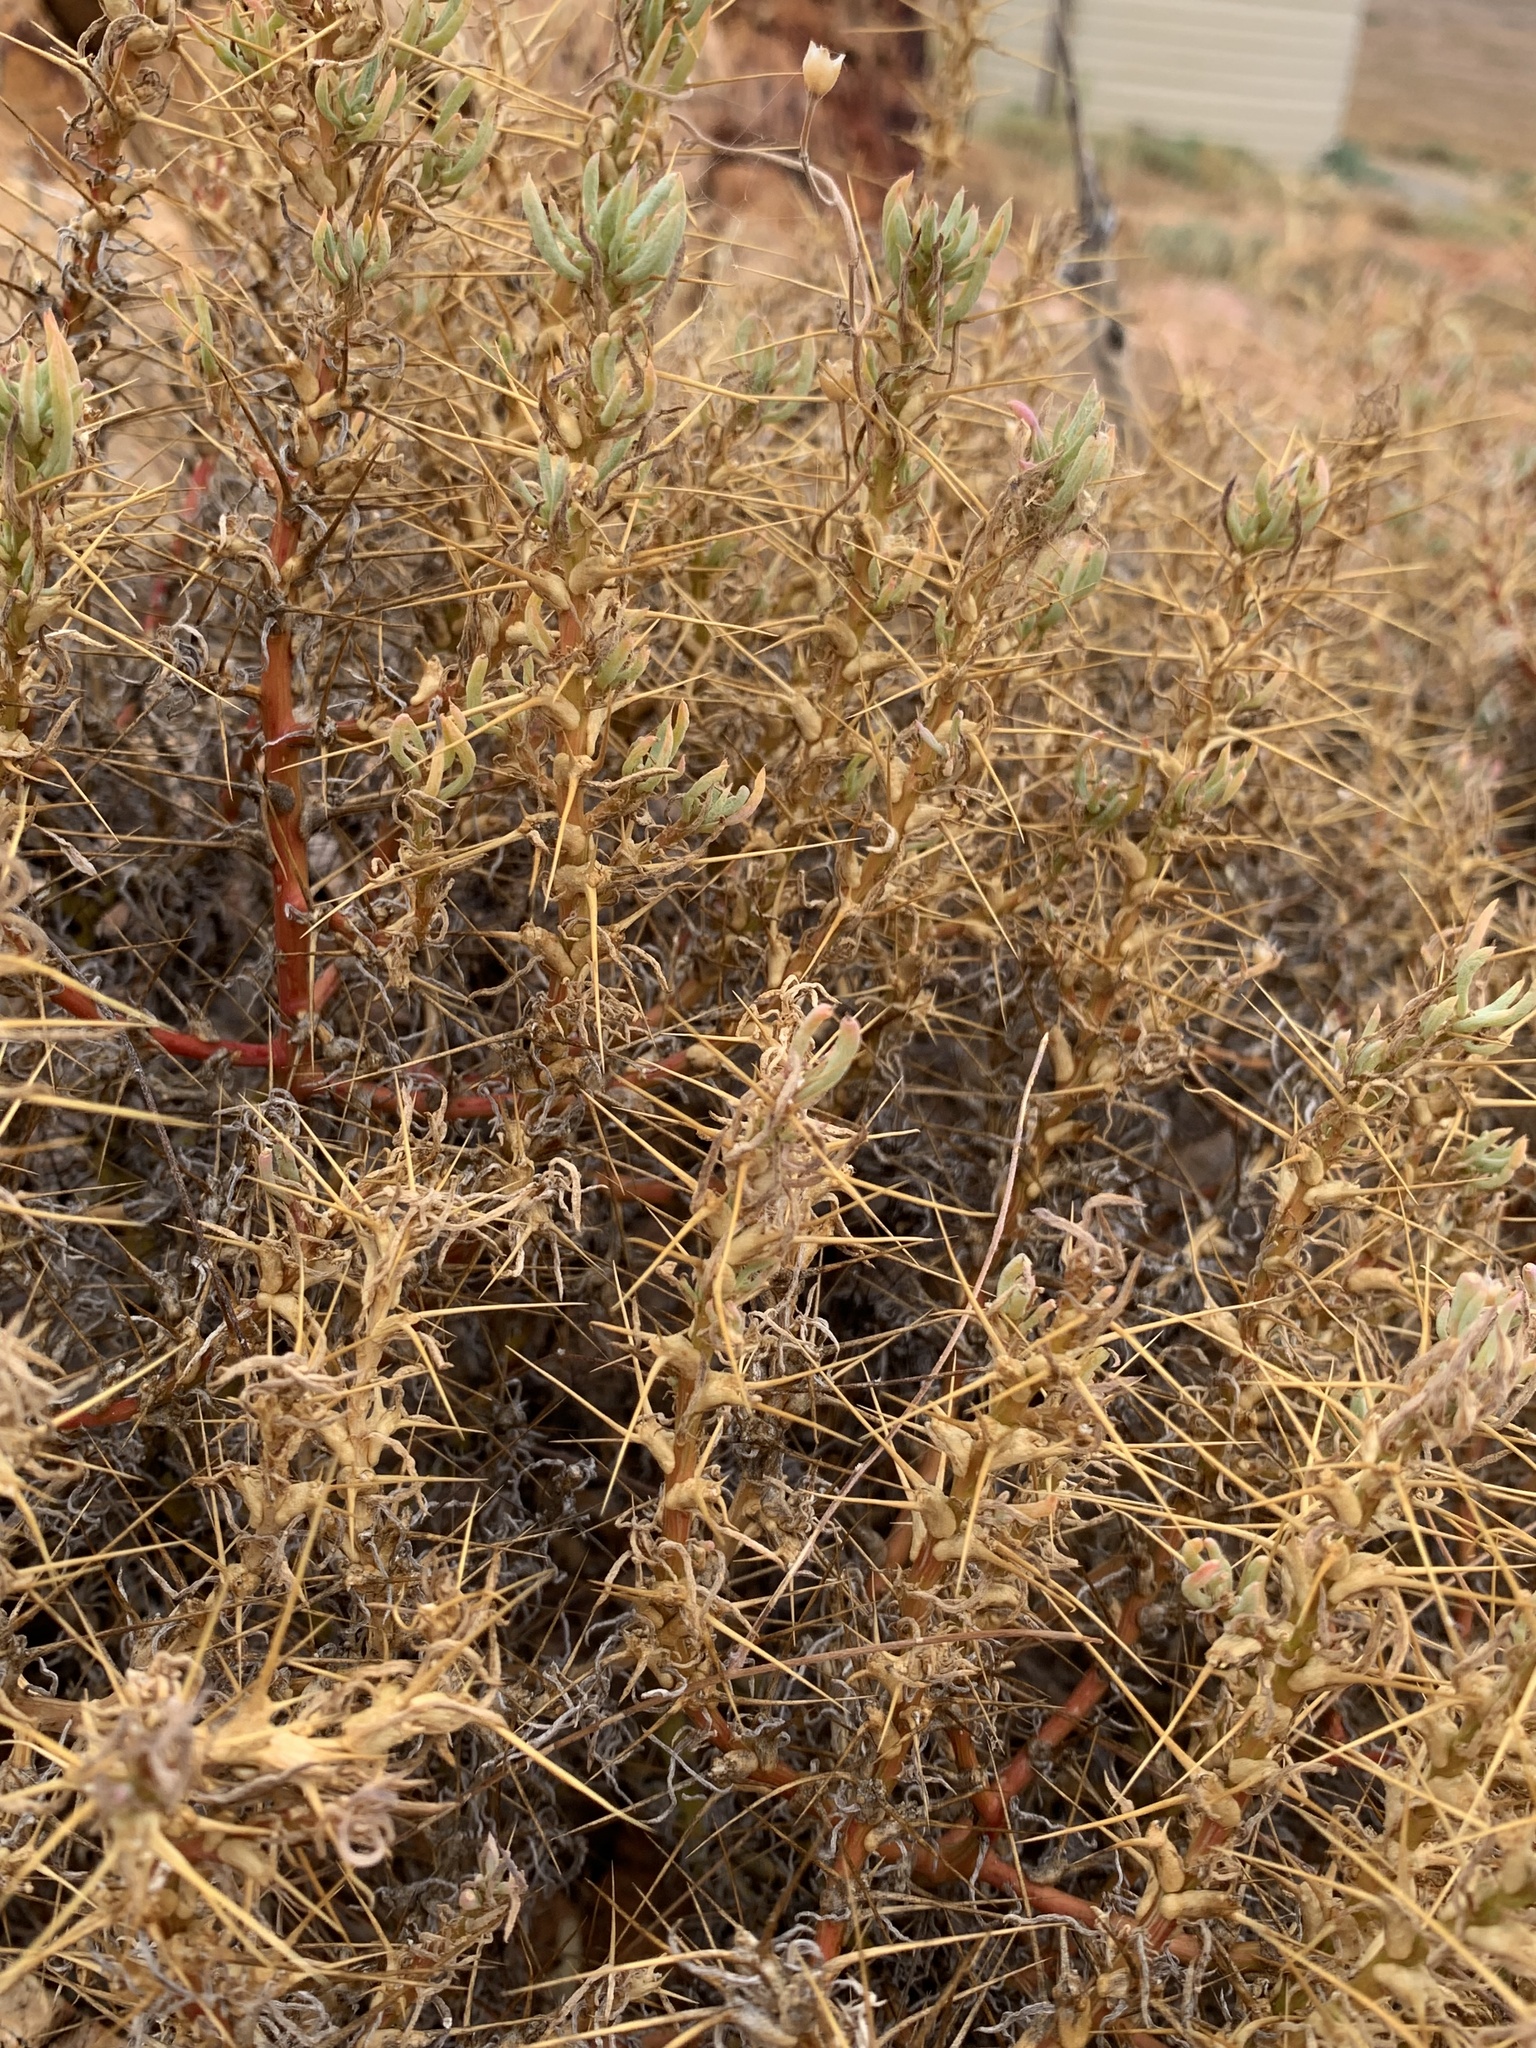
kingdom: Plantae
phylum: Tracheophyta
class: Magnoliopsida
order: Caryophyllales
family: Amaranthaceae
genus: Sclerolaena
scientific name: Sclerolaena longicuspis
